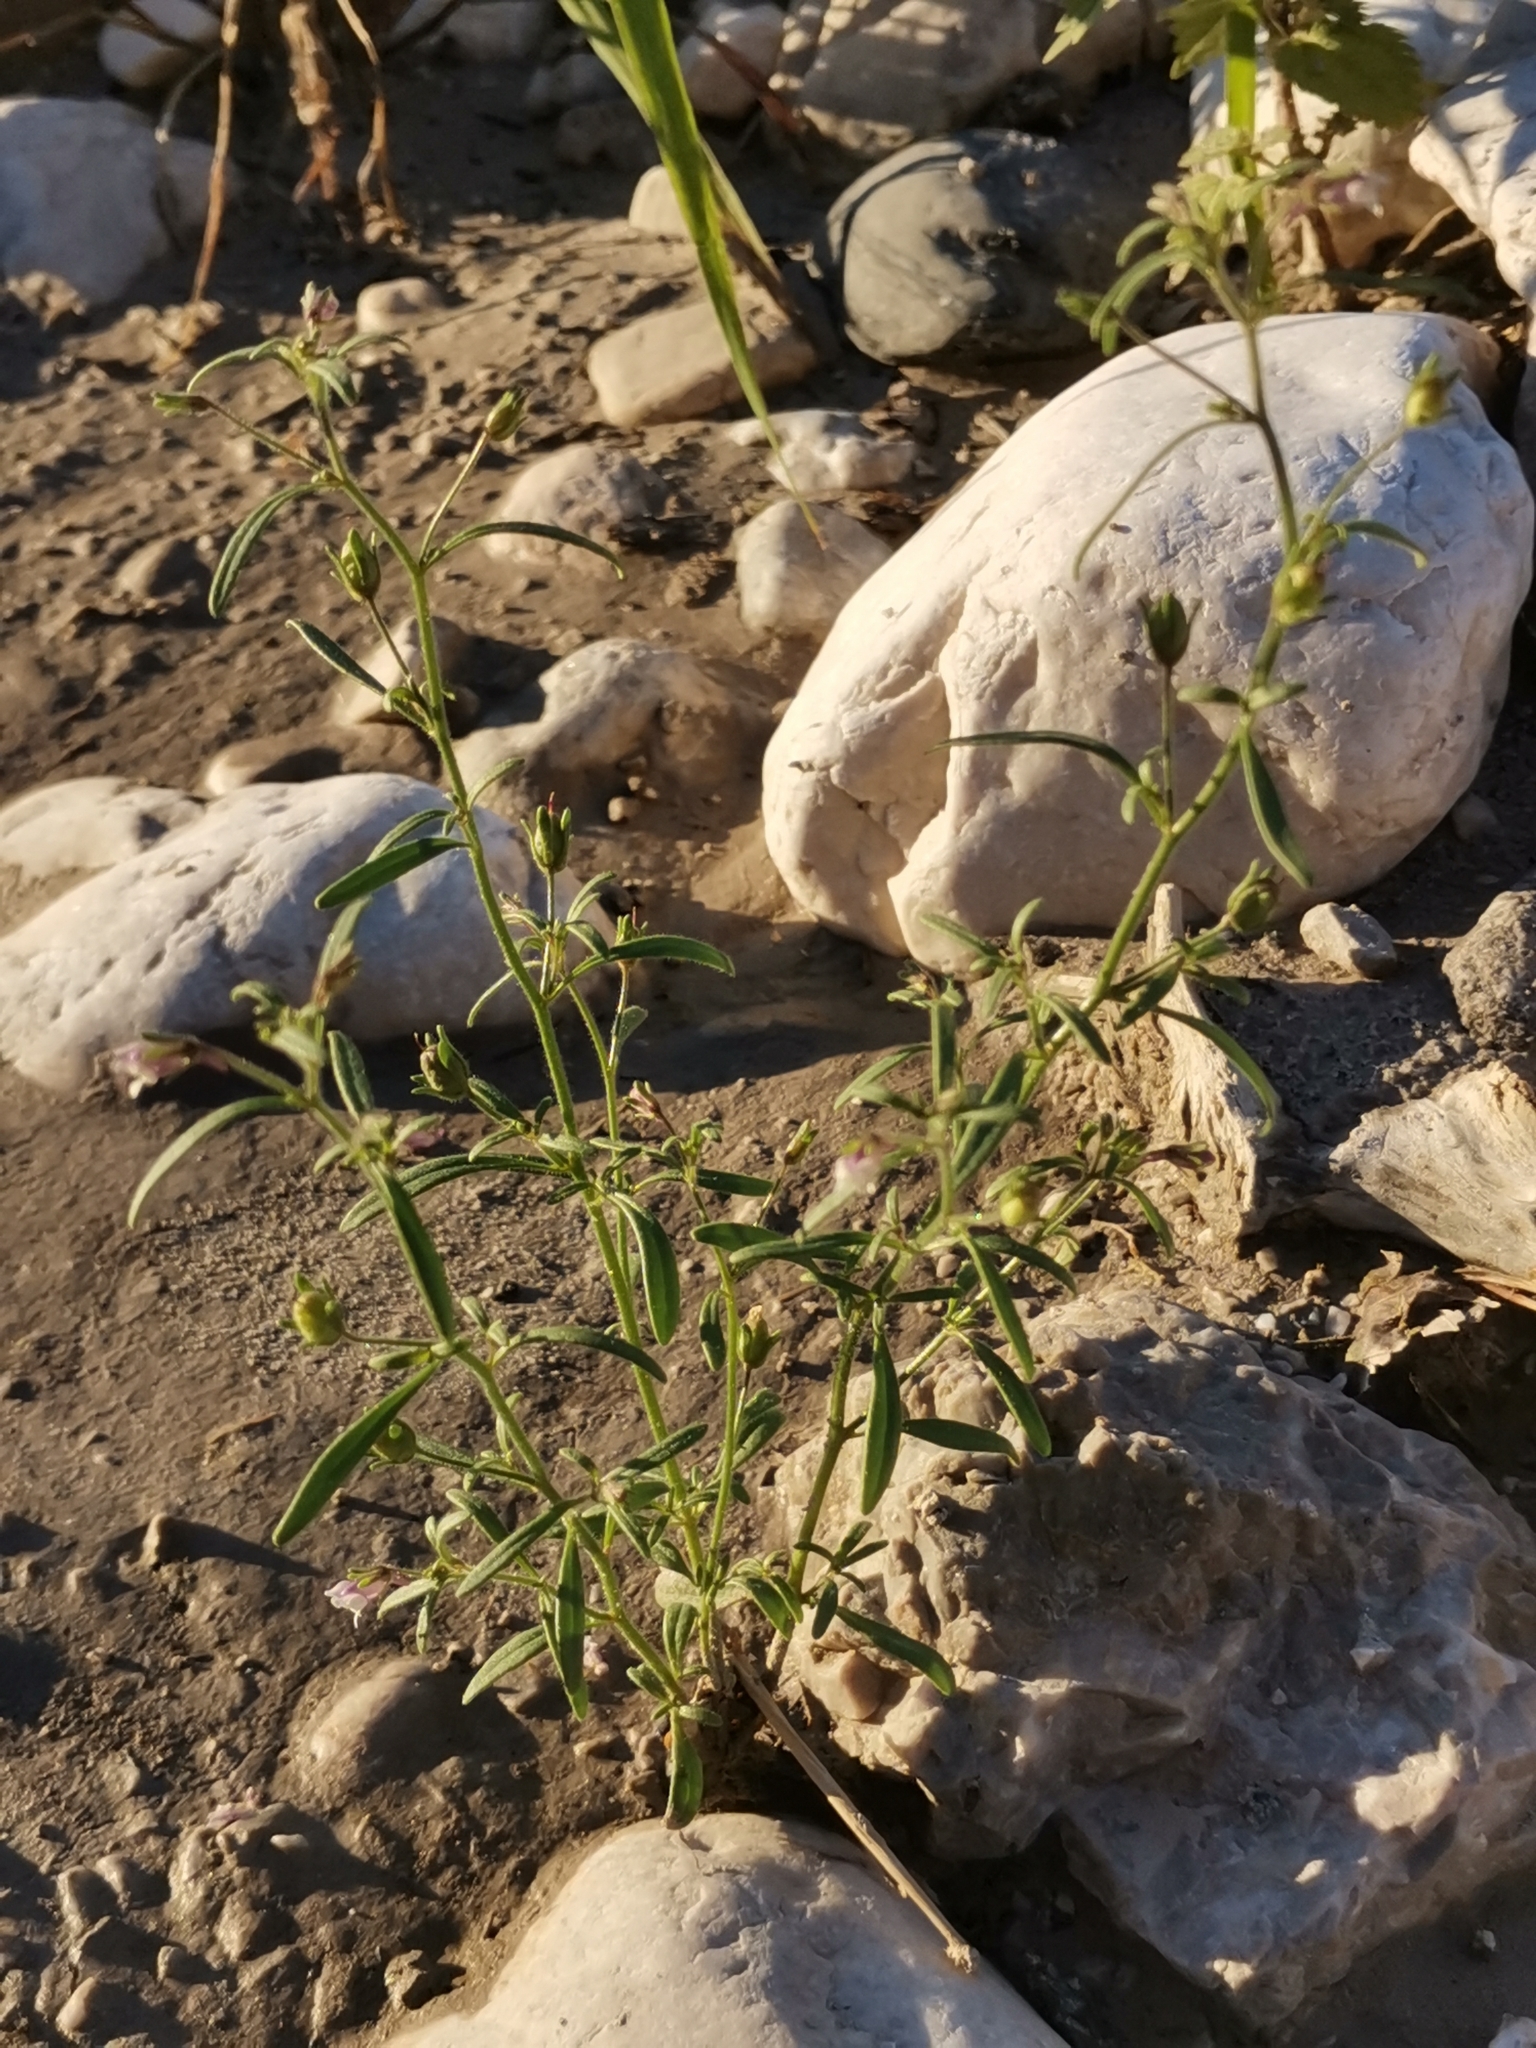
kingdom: Plantae
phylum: Tracheophyta
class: Magnoliopsida
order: Lamiales
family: Plantaginaceae
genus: Chaenorhinum
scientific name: Chaenorhinum minus
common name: Dwarf snapdragon
